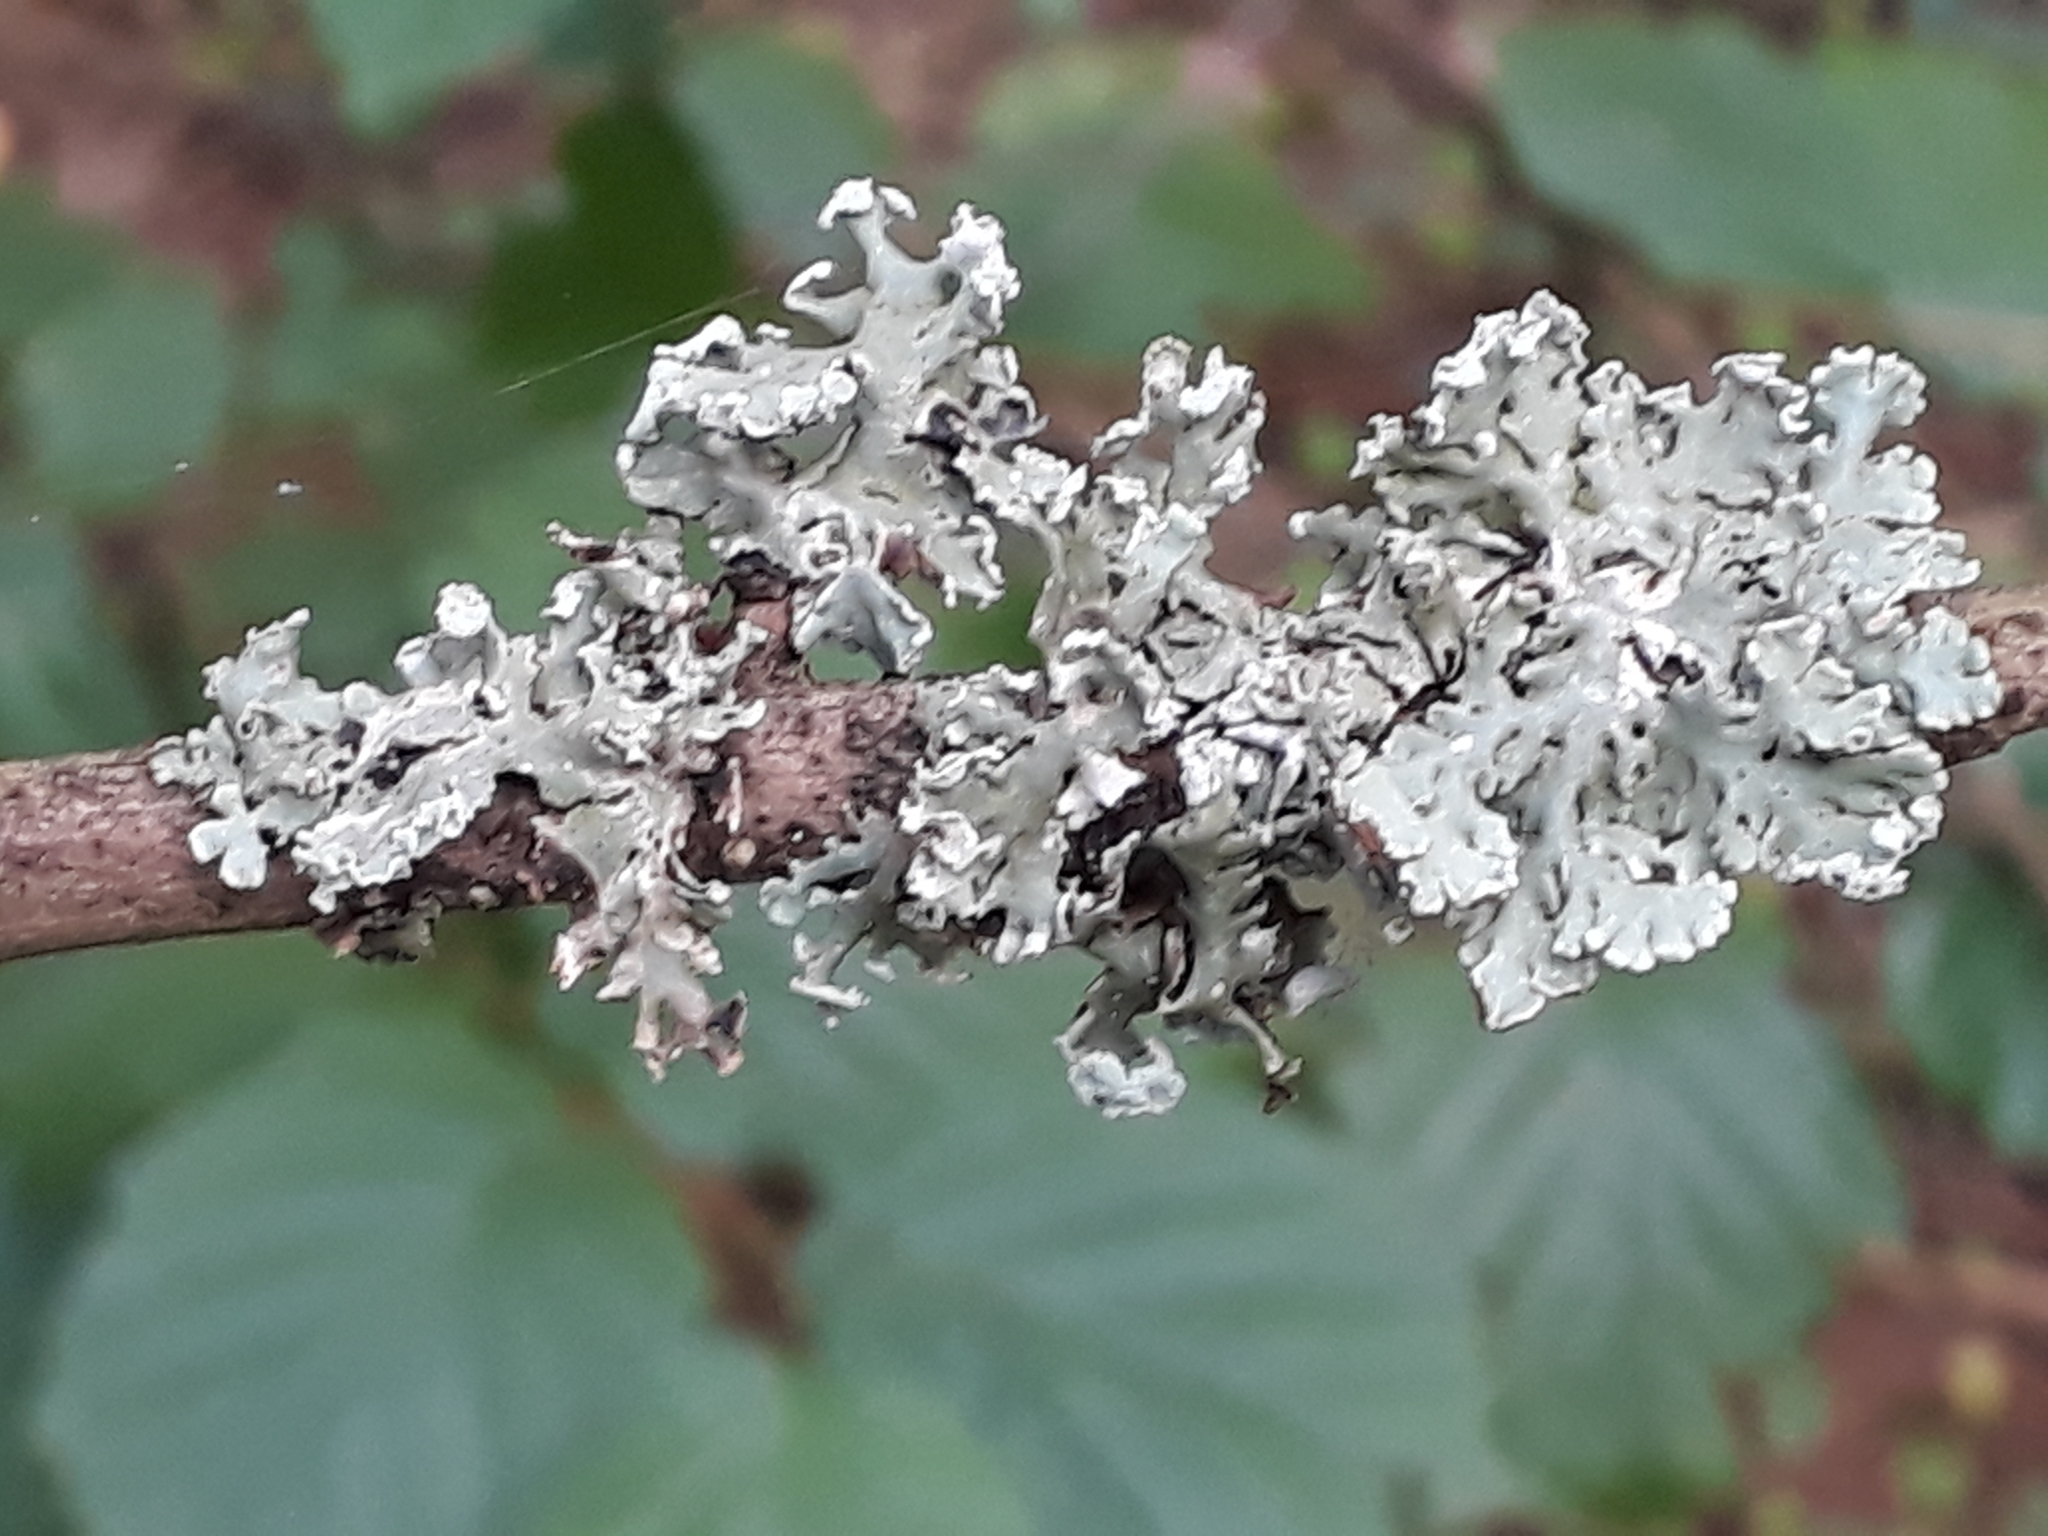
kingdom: Fungi
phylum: Ascomycota
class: Lecanoromycetes
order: Lecanorales
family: Parmeliaceae
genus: Hypogymnia
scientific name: Hypogymnia physodes
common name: Dark crottle
